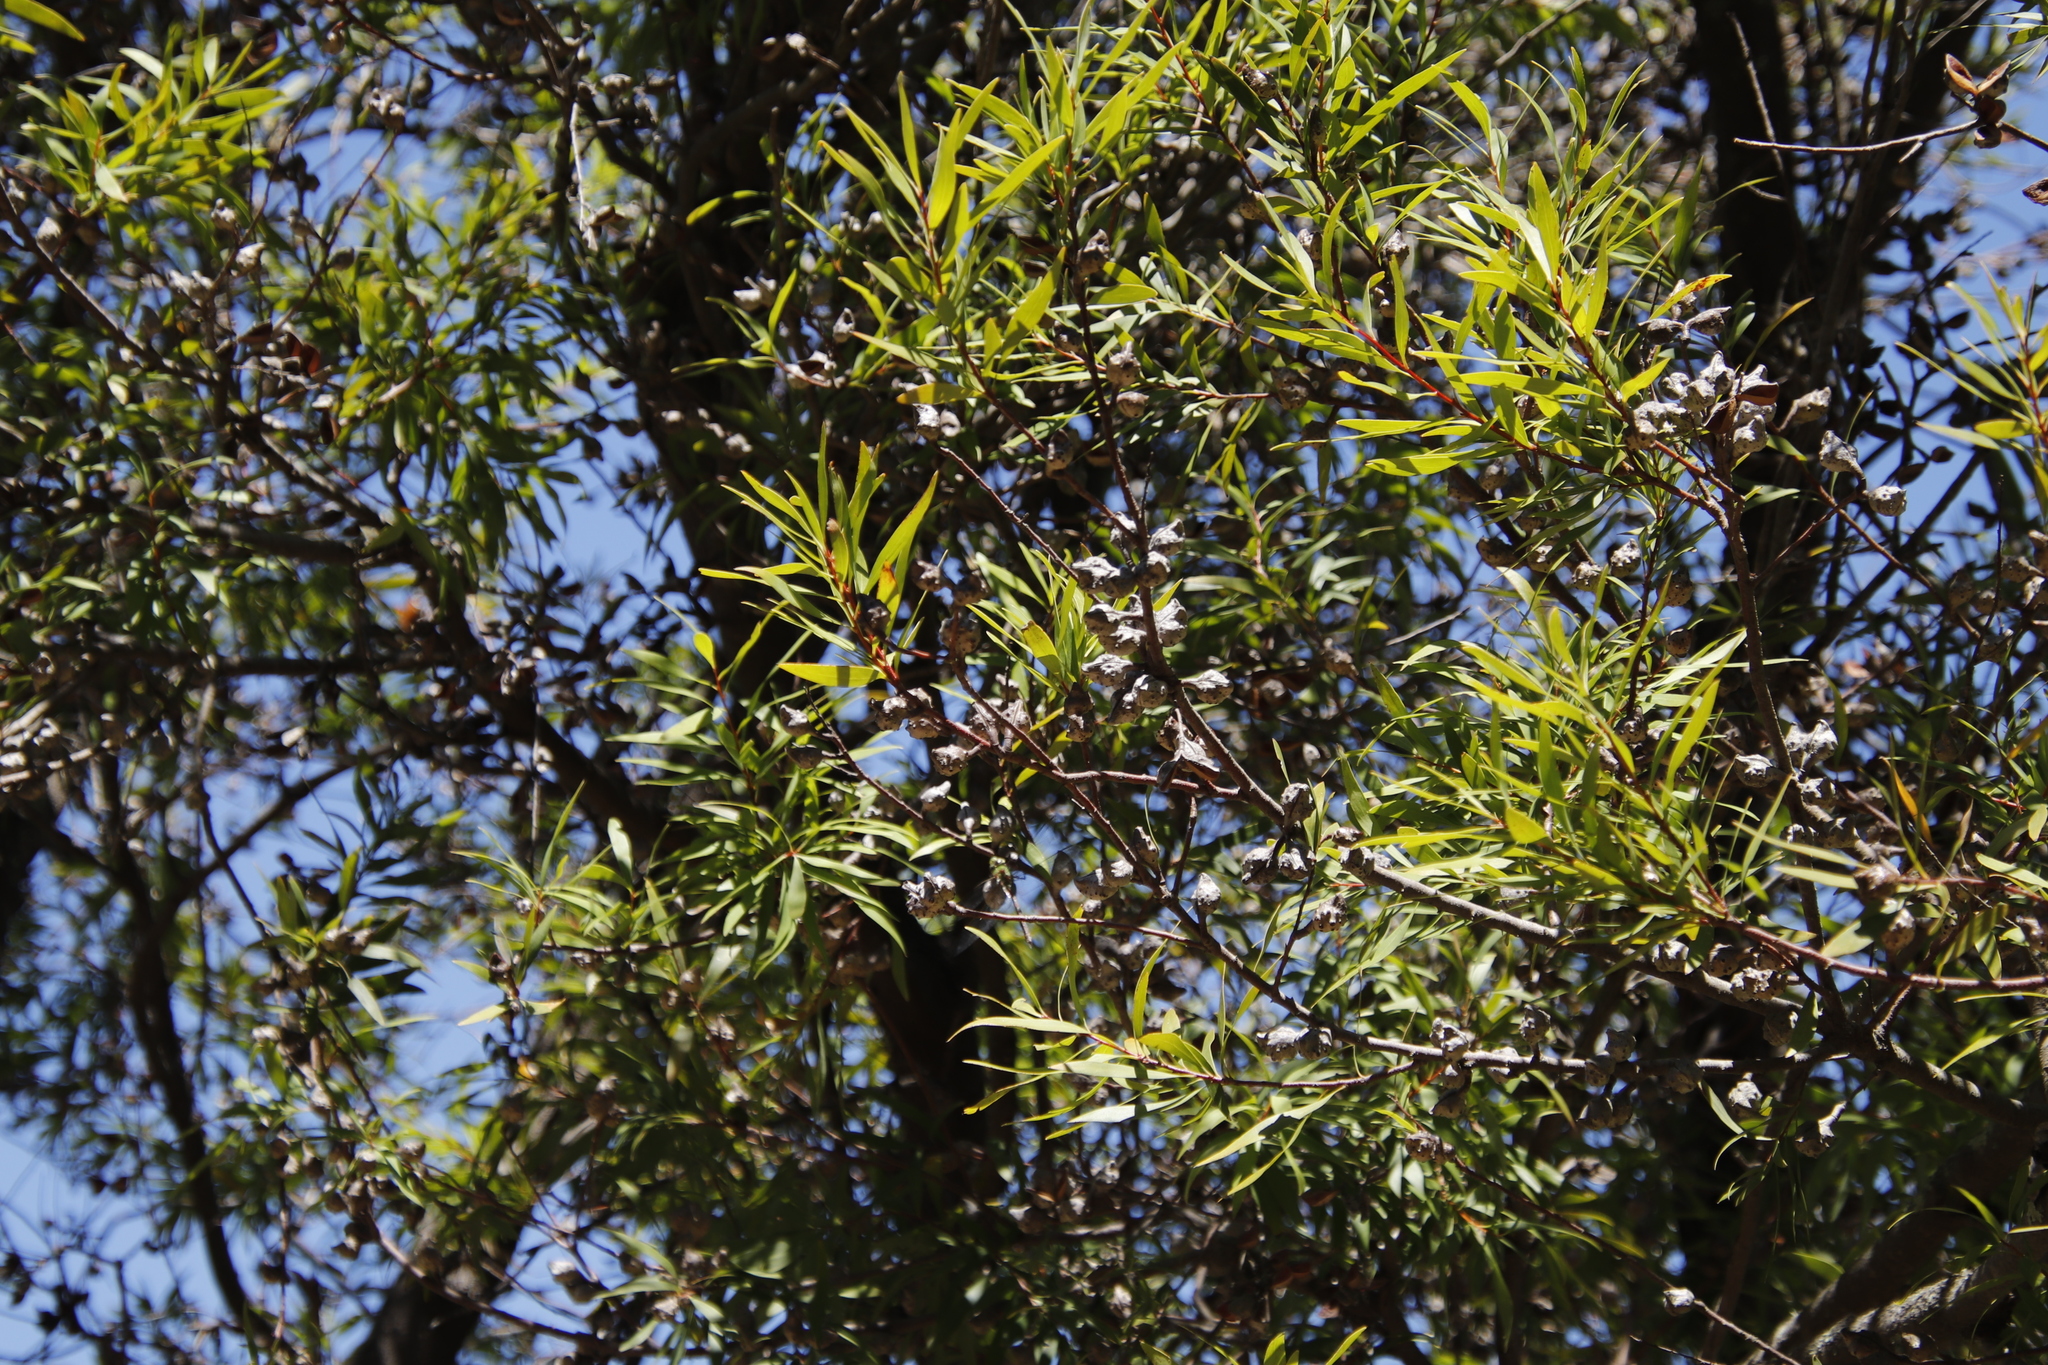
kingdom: Plantae
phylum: Tracheophyta
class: Magnoliopsida
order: Proteales
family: Proteaceae
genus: Hakea
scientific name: Hakea salicifolia
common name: Willow hakea
